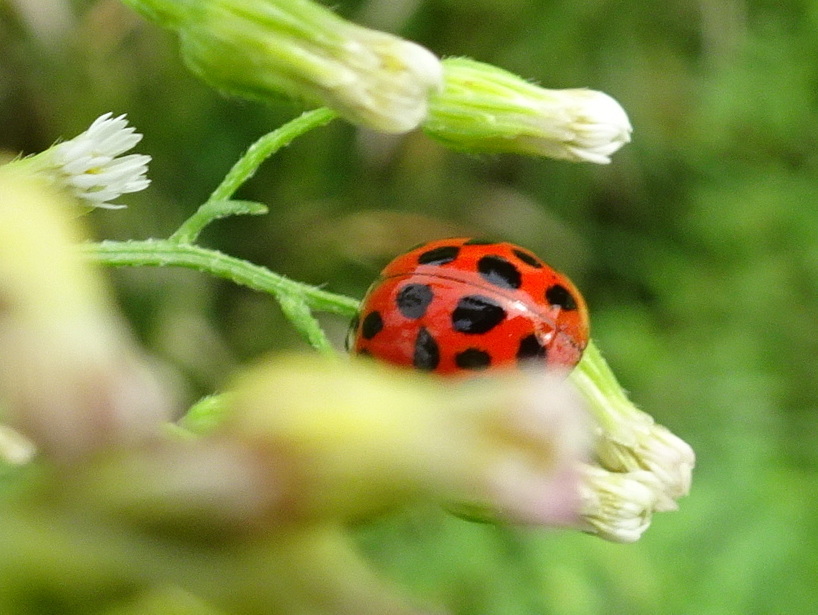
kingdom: Animalia
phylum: Arthropoda
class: Insecta
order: Coleoptera
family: Coccinellidae
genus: Harmonia
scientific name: Harmonia axyridis
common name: Harlequin ladybird
